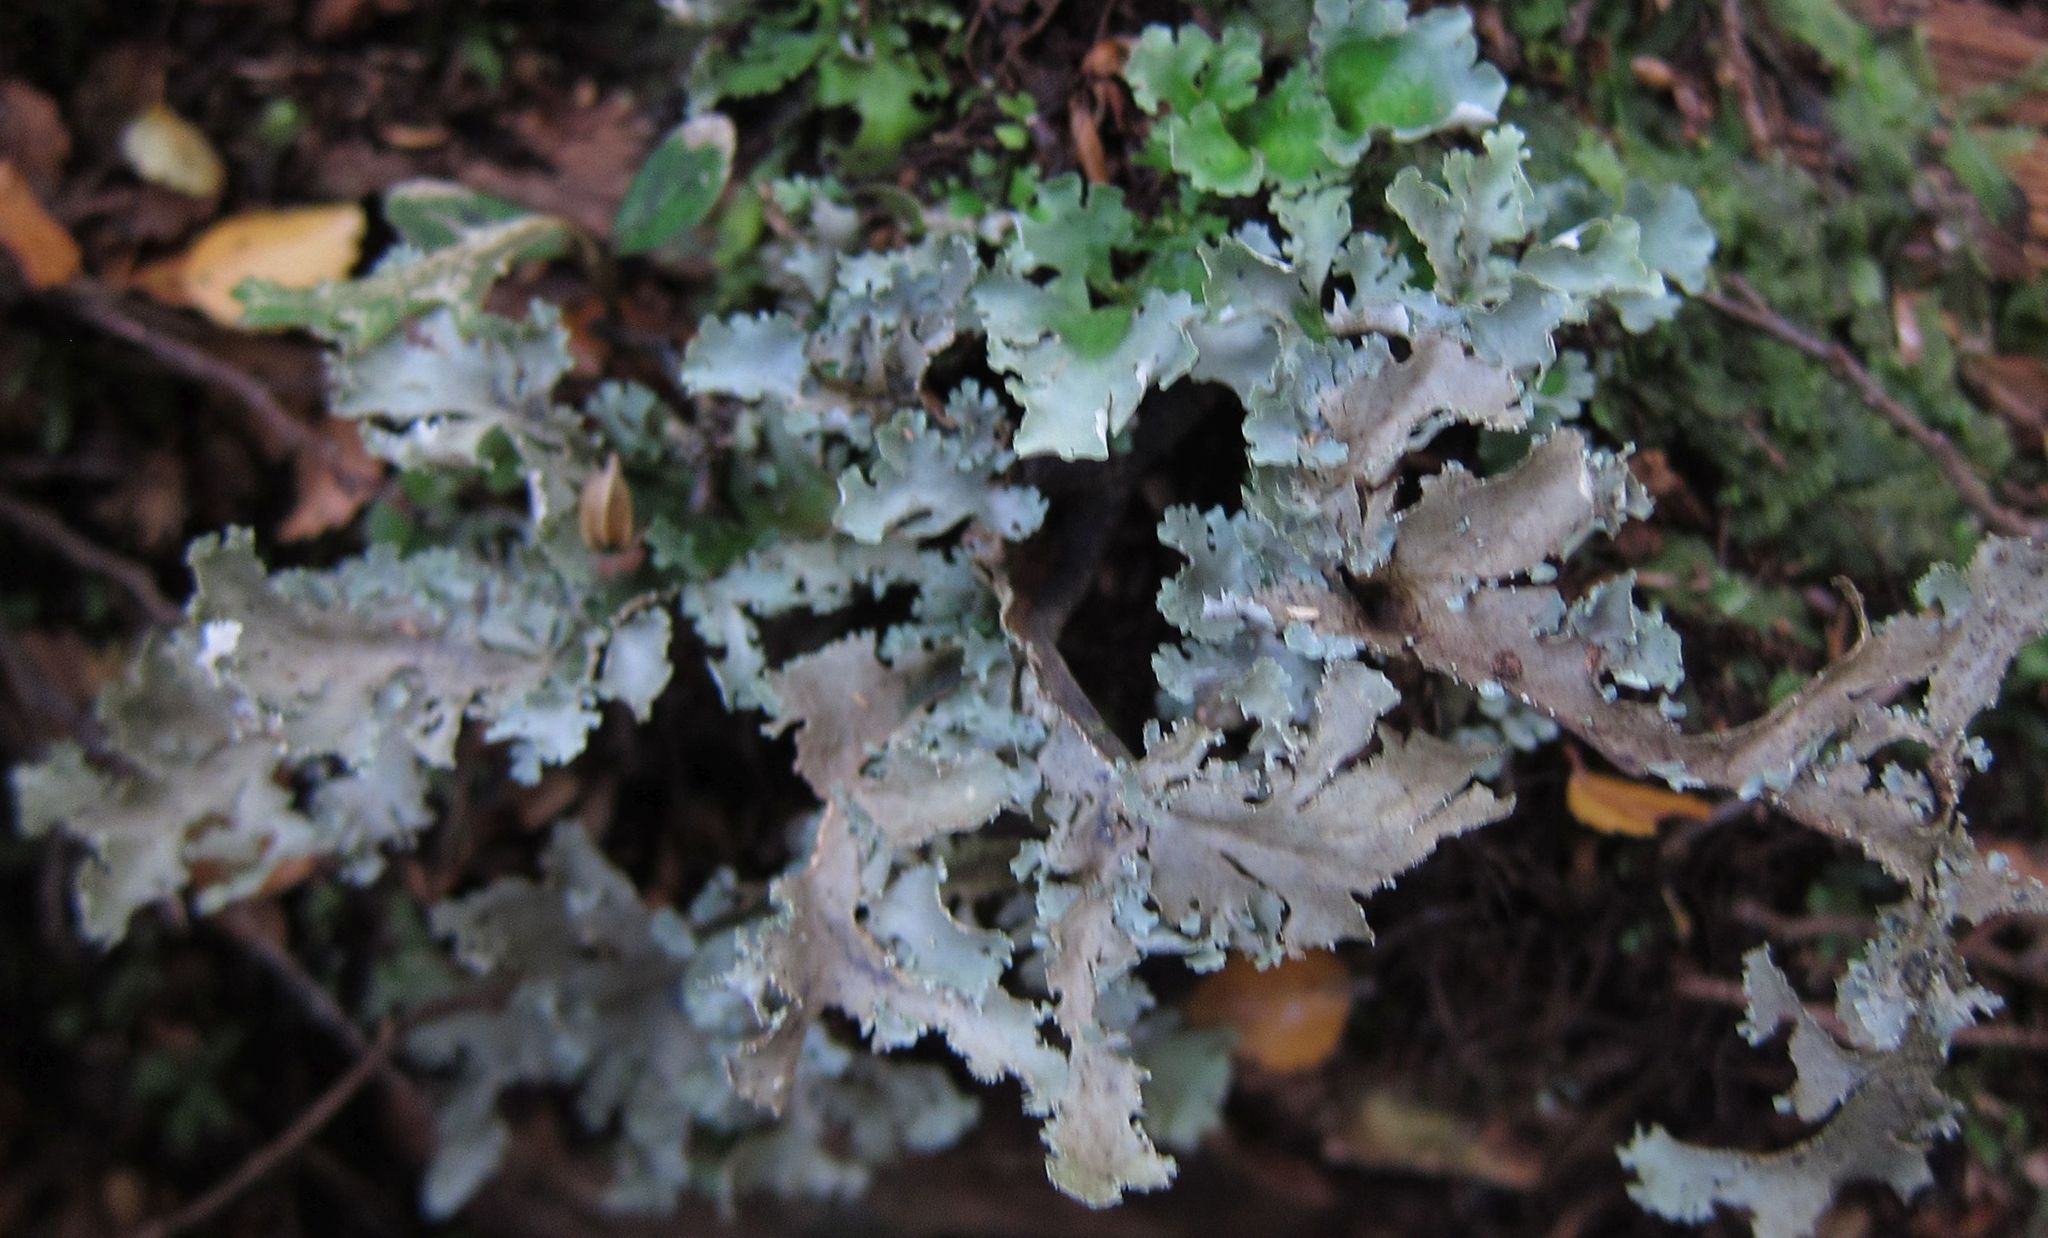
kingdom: Fungi
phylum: Ascomycota
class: Lecanoromycetes
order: Peltigerales
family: Lobariaceae
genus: Pseudocyphellaria
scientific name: Pseudocyphellaria glabra
